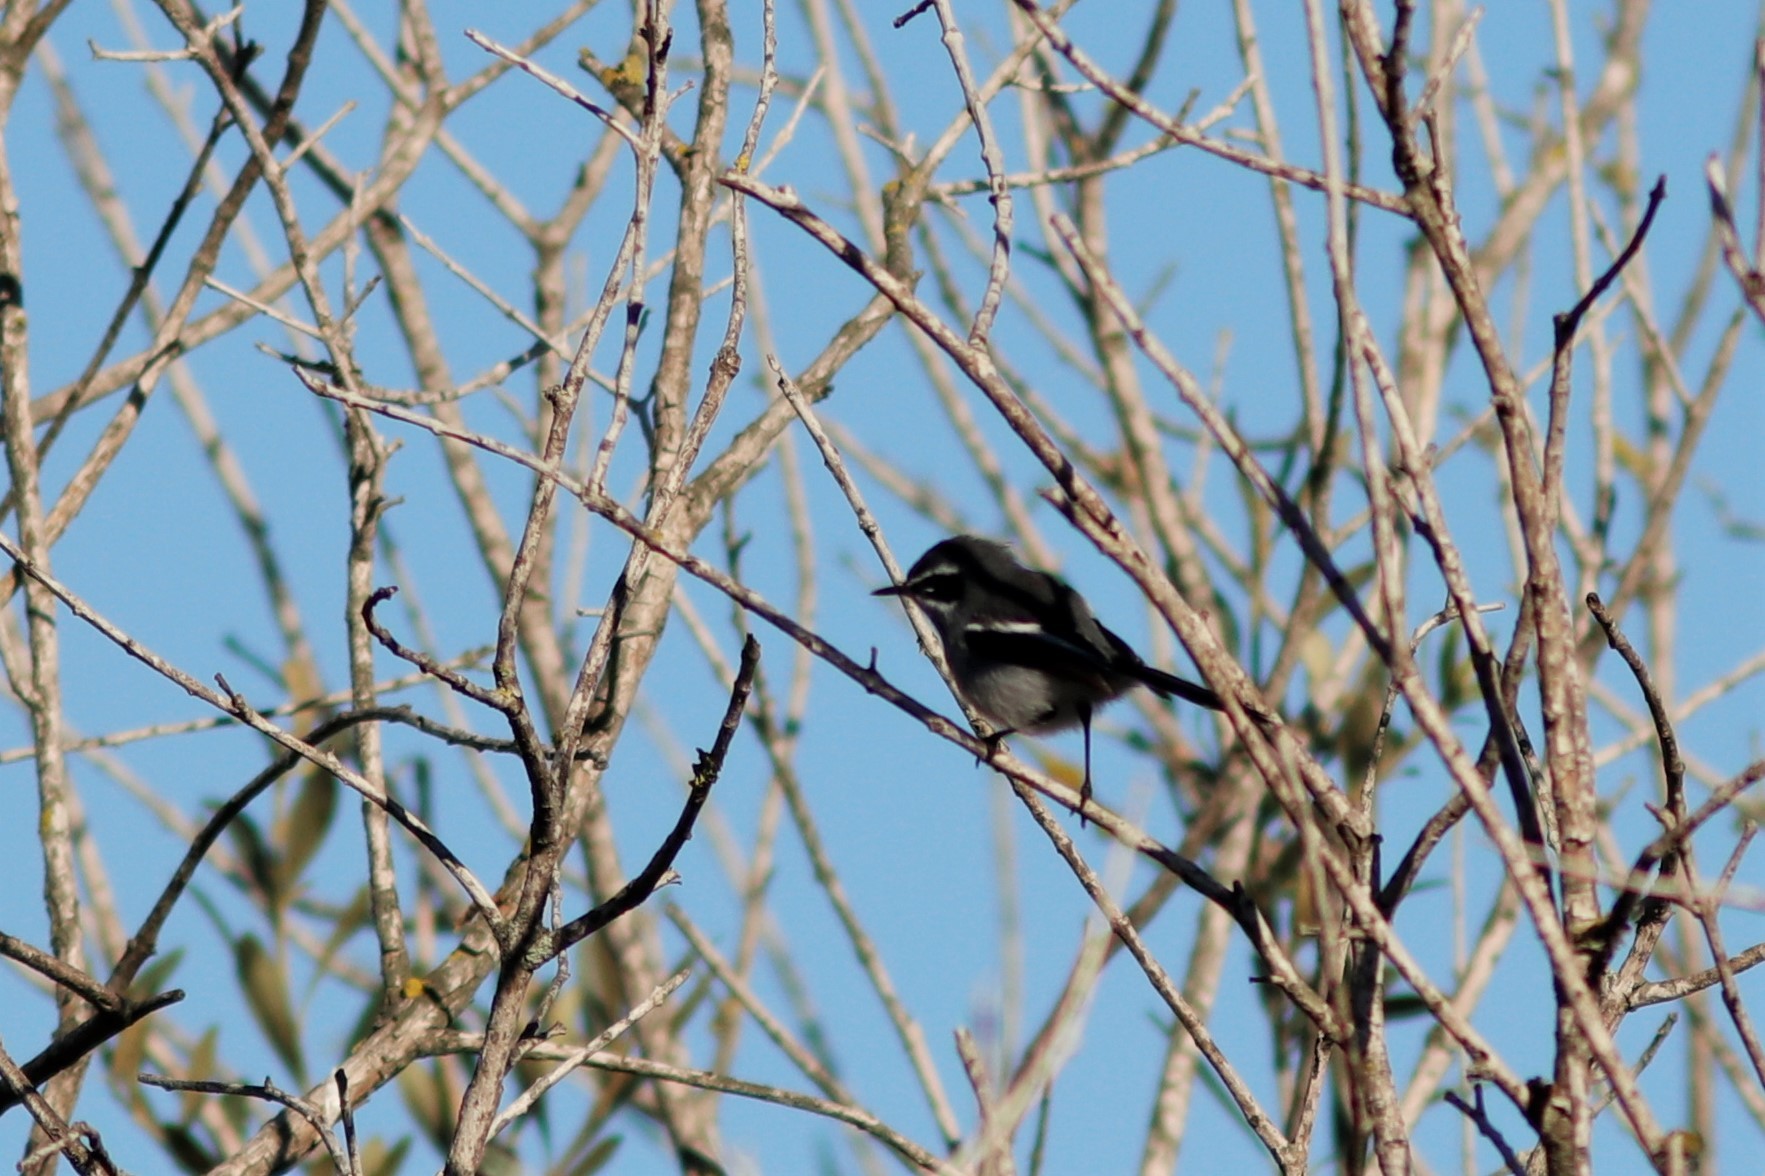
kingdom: Animalia
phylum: Chordata
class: Aves
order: Passeriformes
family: Stenostiridae
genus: Stenostira
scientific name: Stenostira scita
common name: Fairy flycatcher
